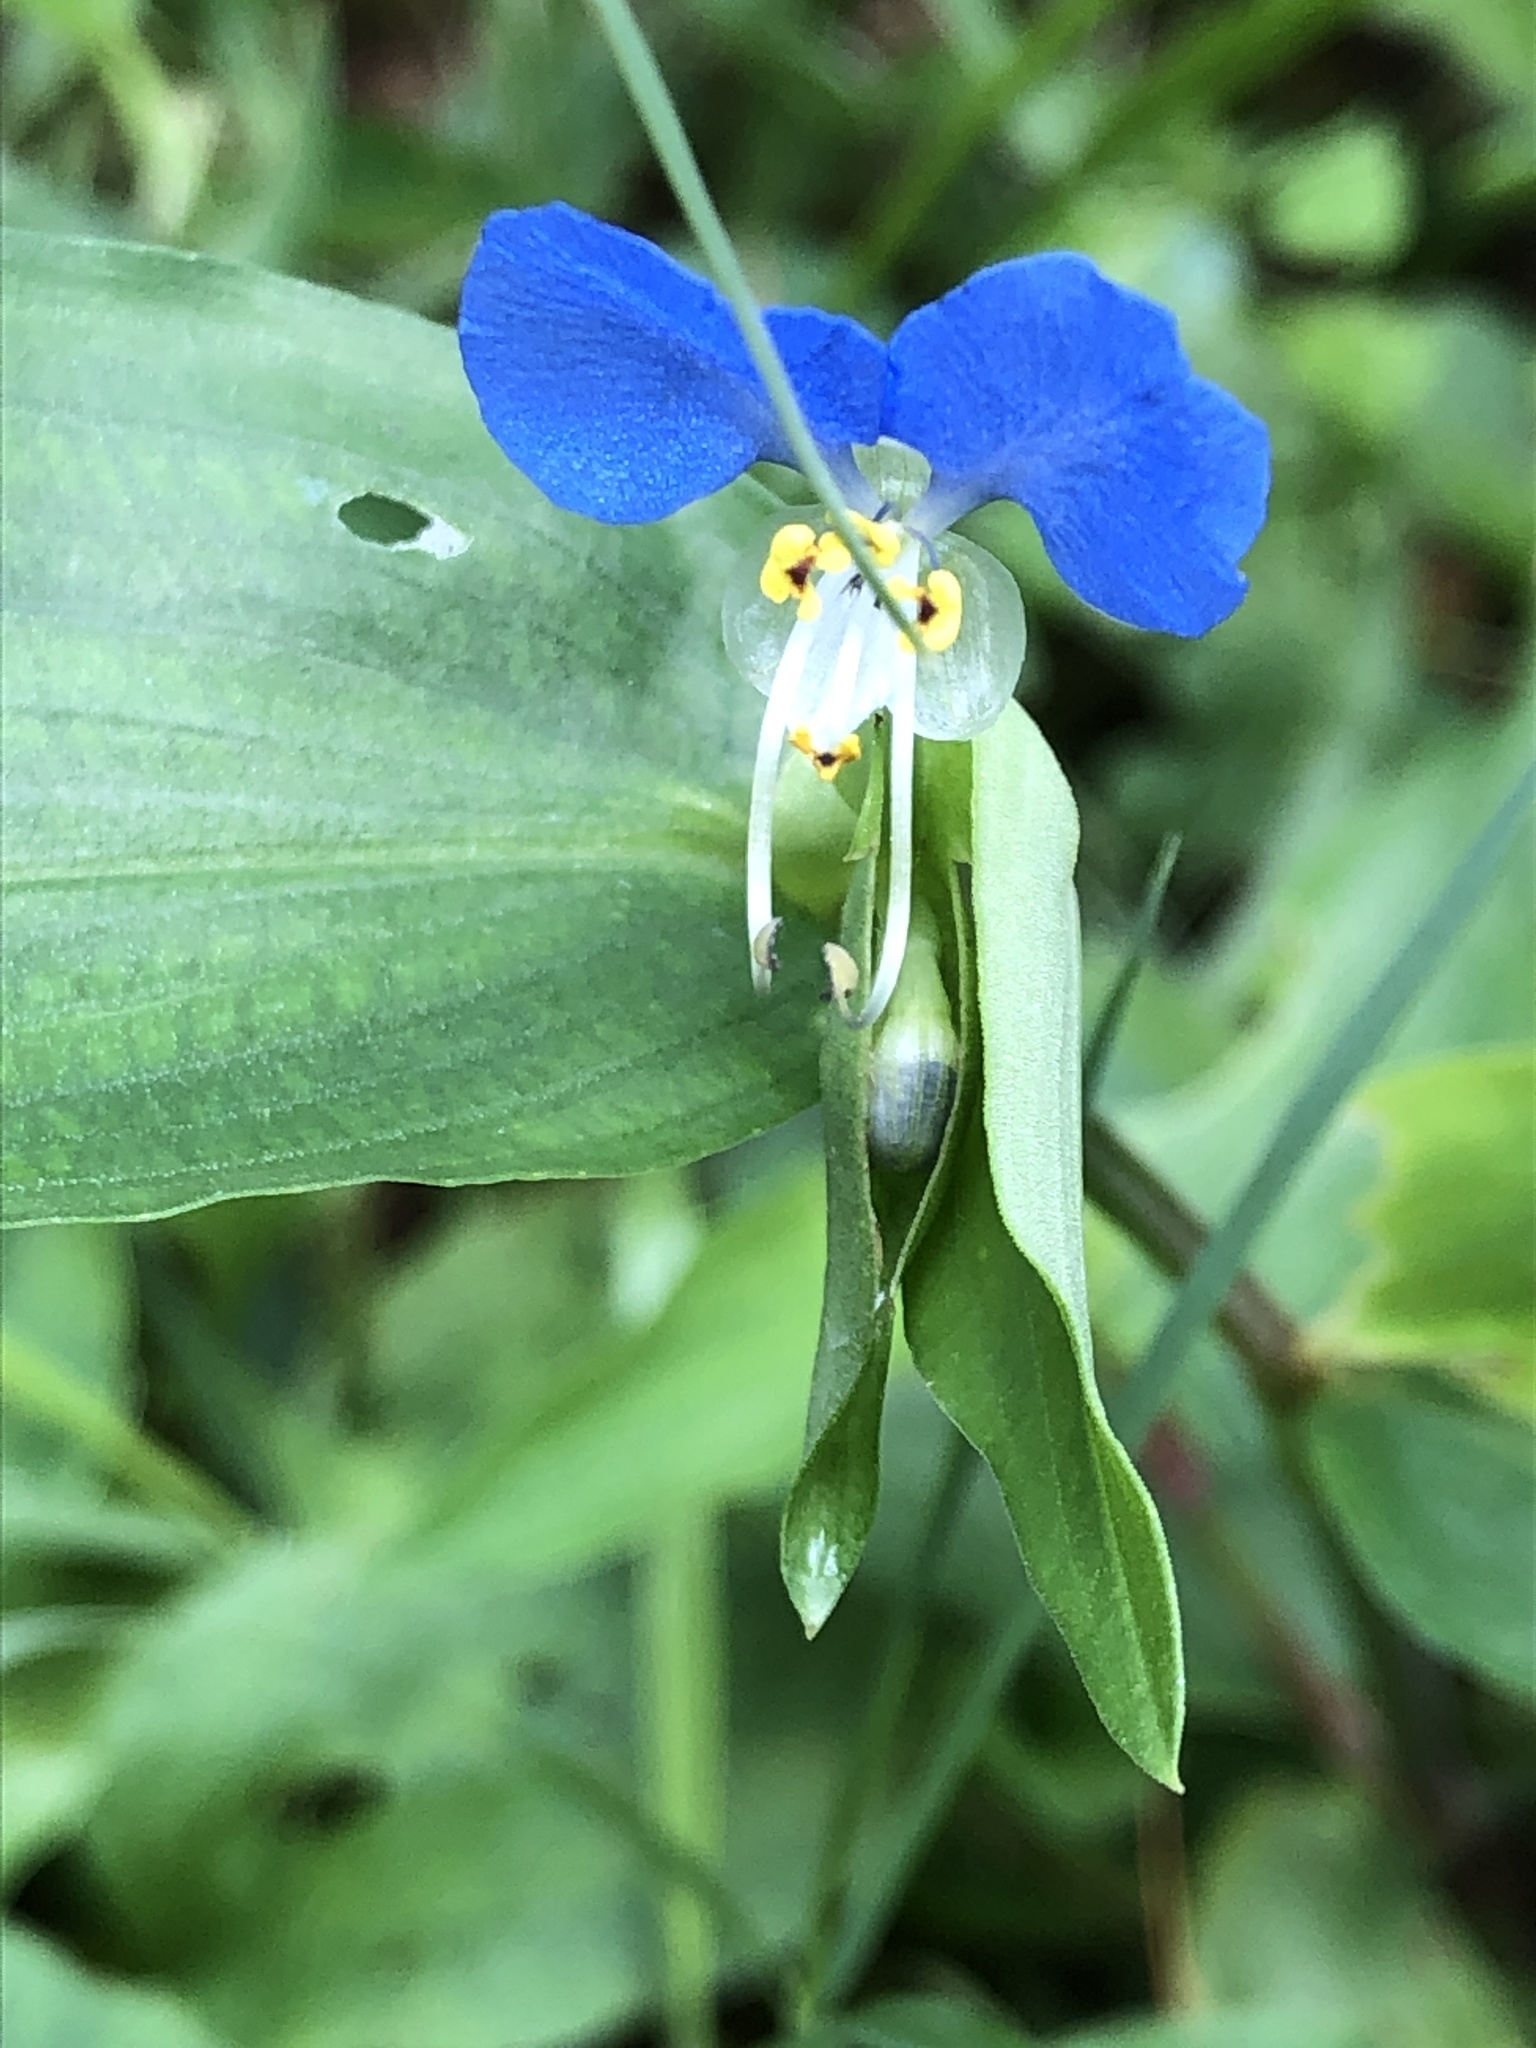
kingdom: Plantae
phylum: Tracheophyta
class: Liliopsida
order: Commelinales
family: Commelinaceae
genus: Commelina
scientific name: Commelina communis
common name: Asiatic dayflower
